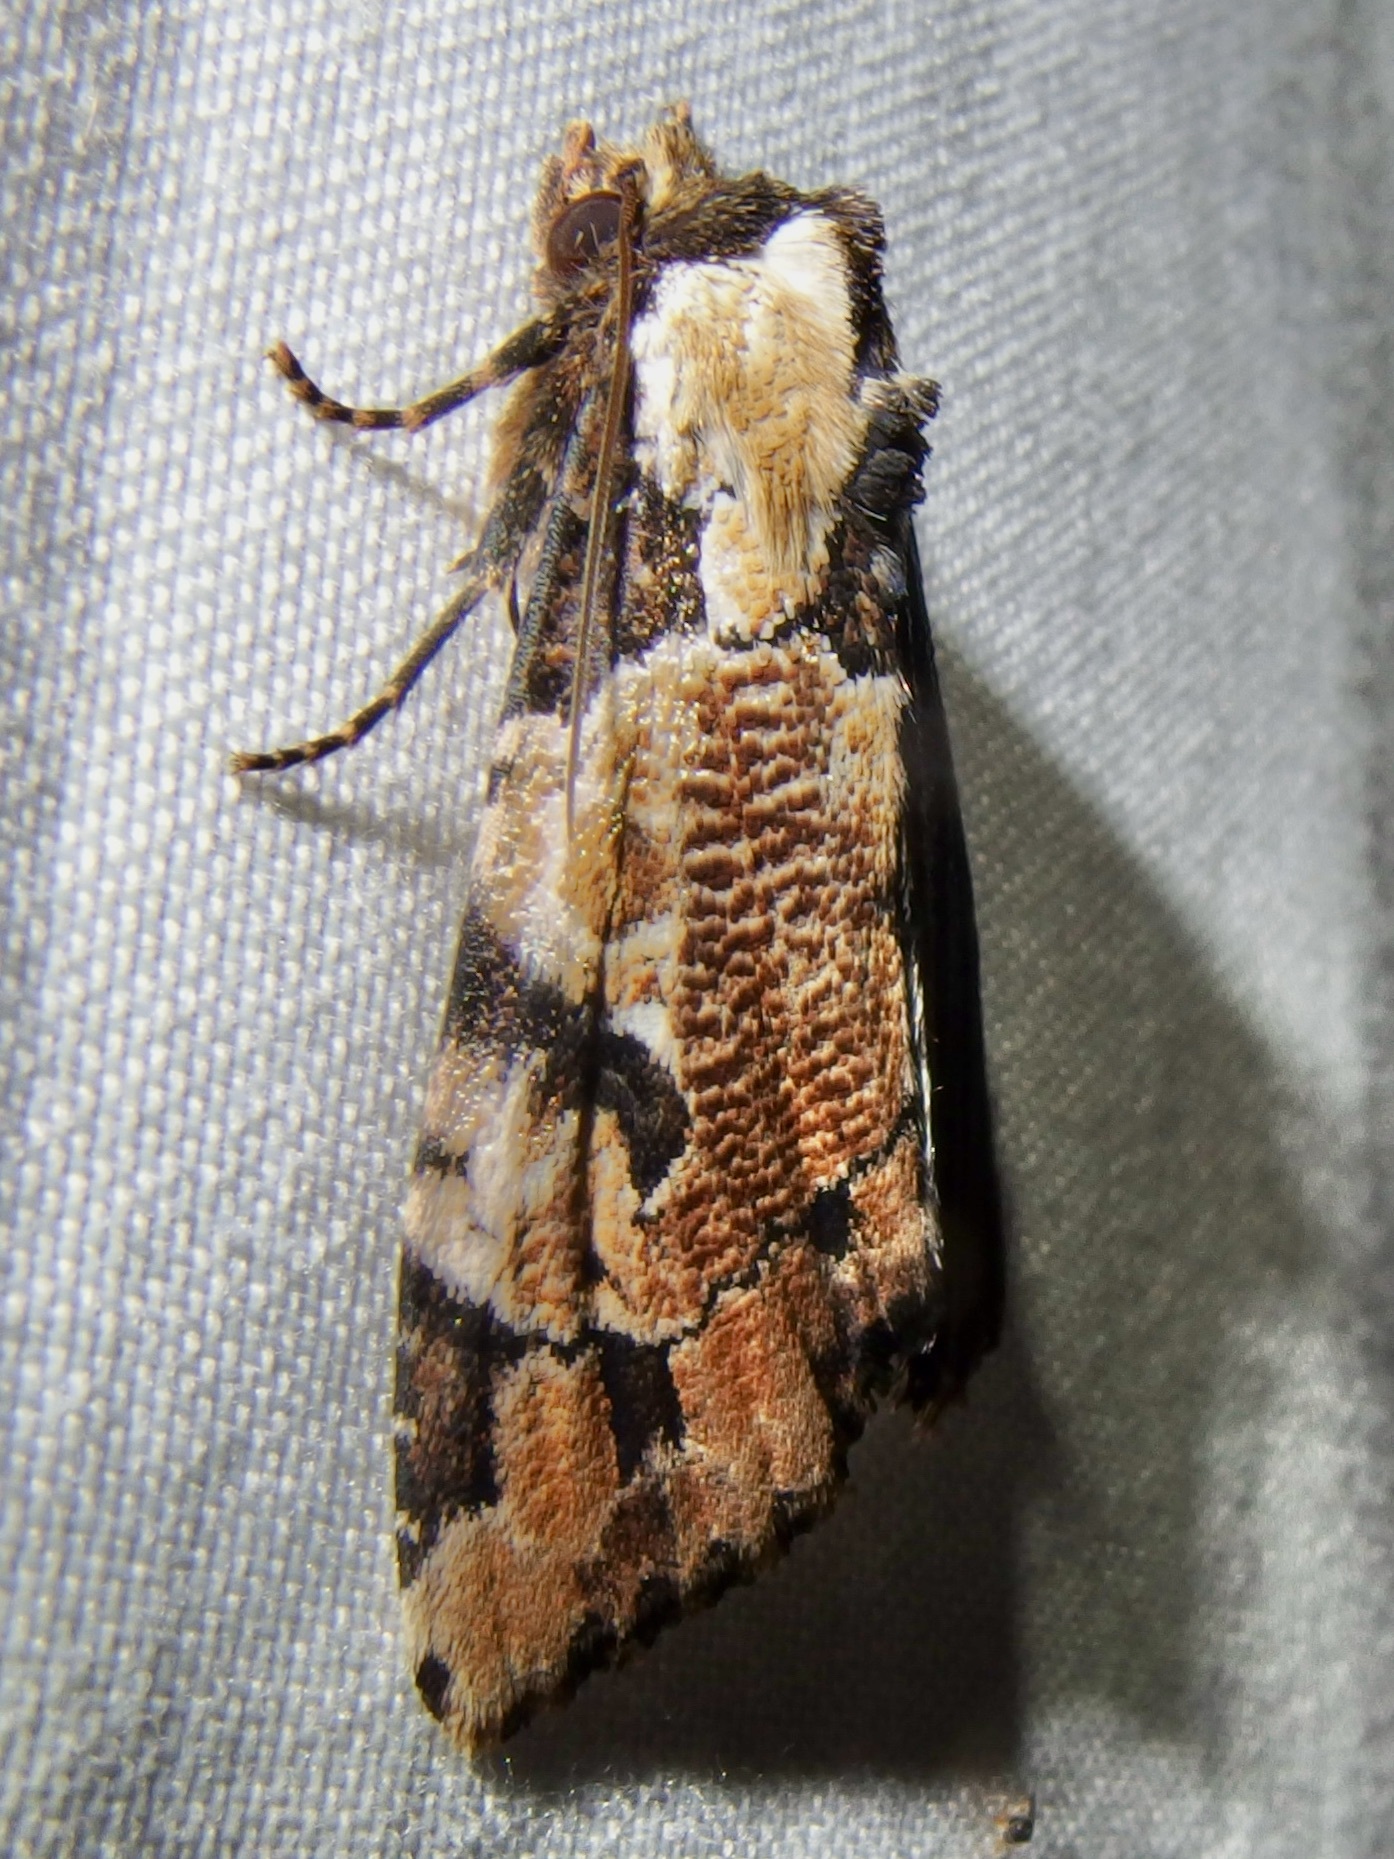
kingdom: Animalia
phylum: Arthropoda
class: Insecta
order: Lepidoptera
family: Noctuidae
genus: Stibaera
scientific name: Stibaera thyatiroides
